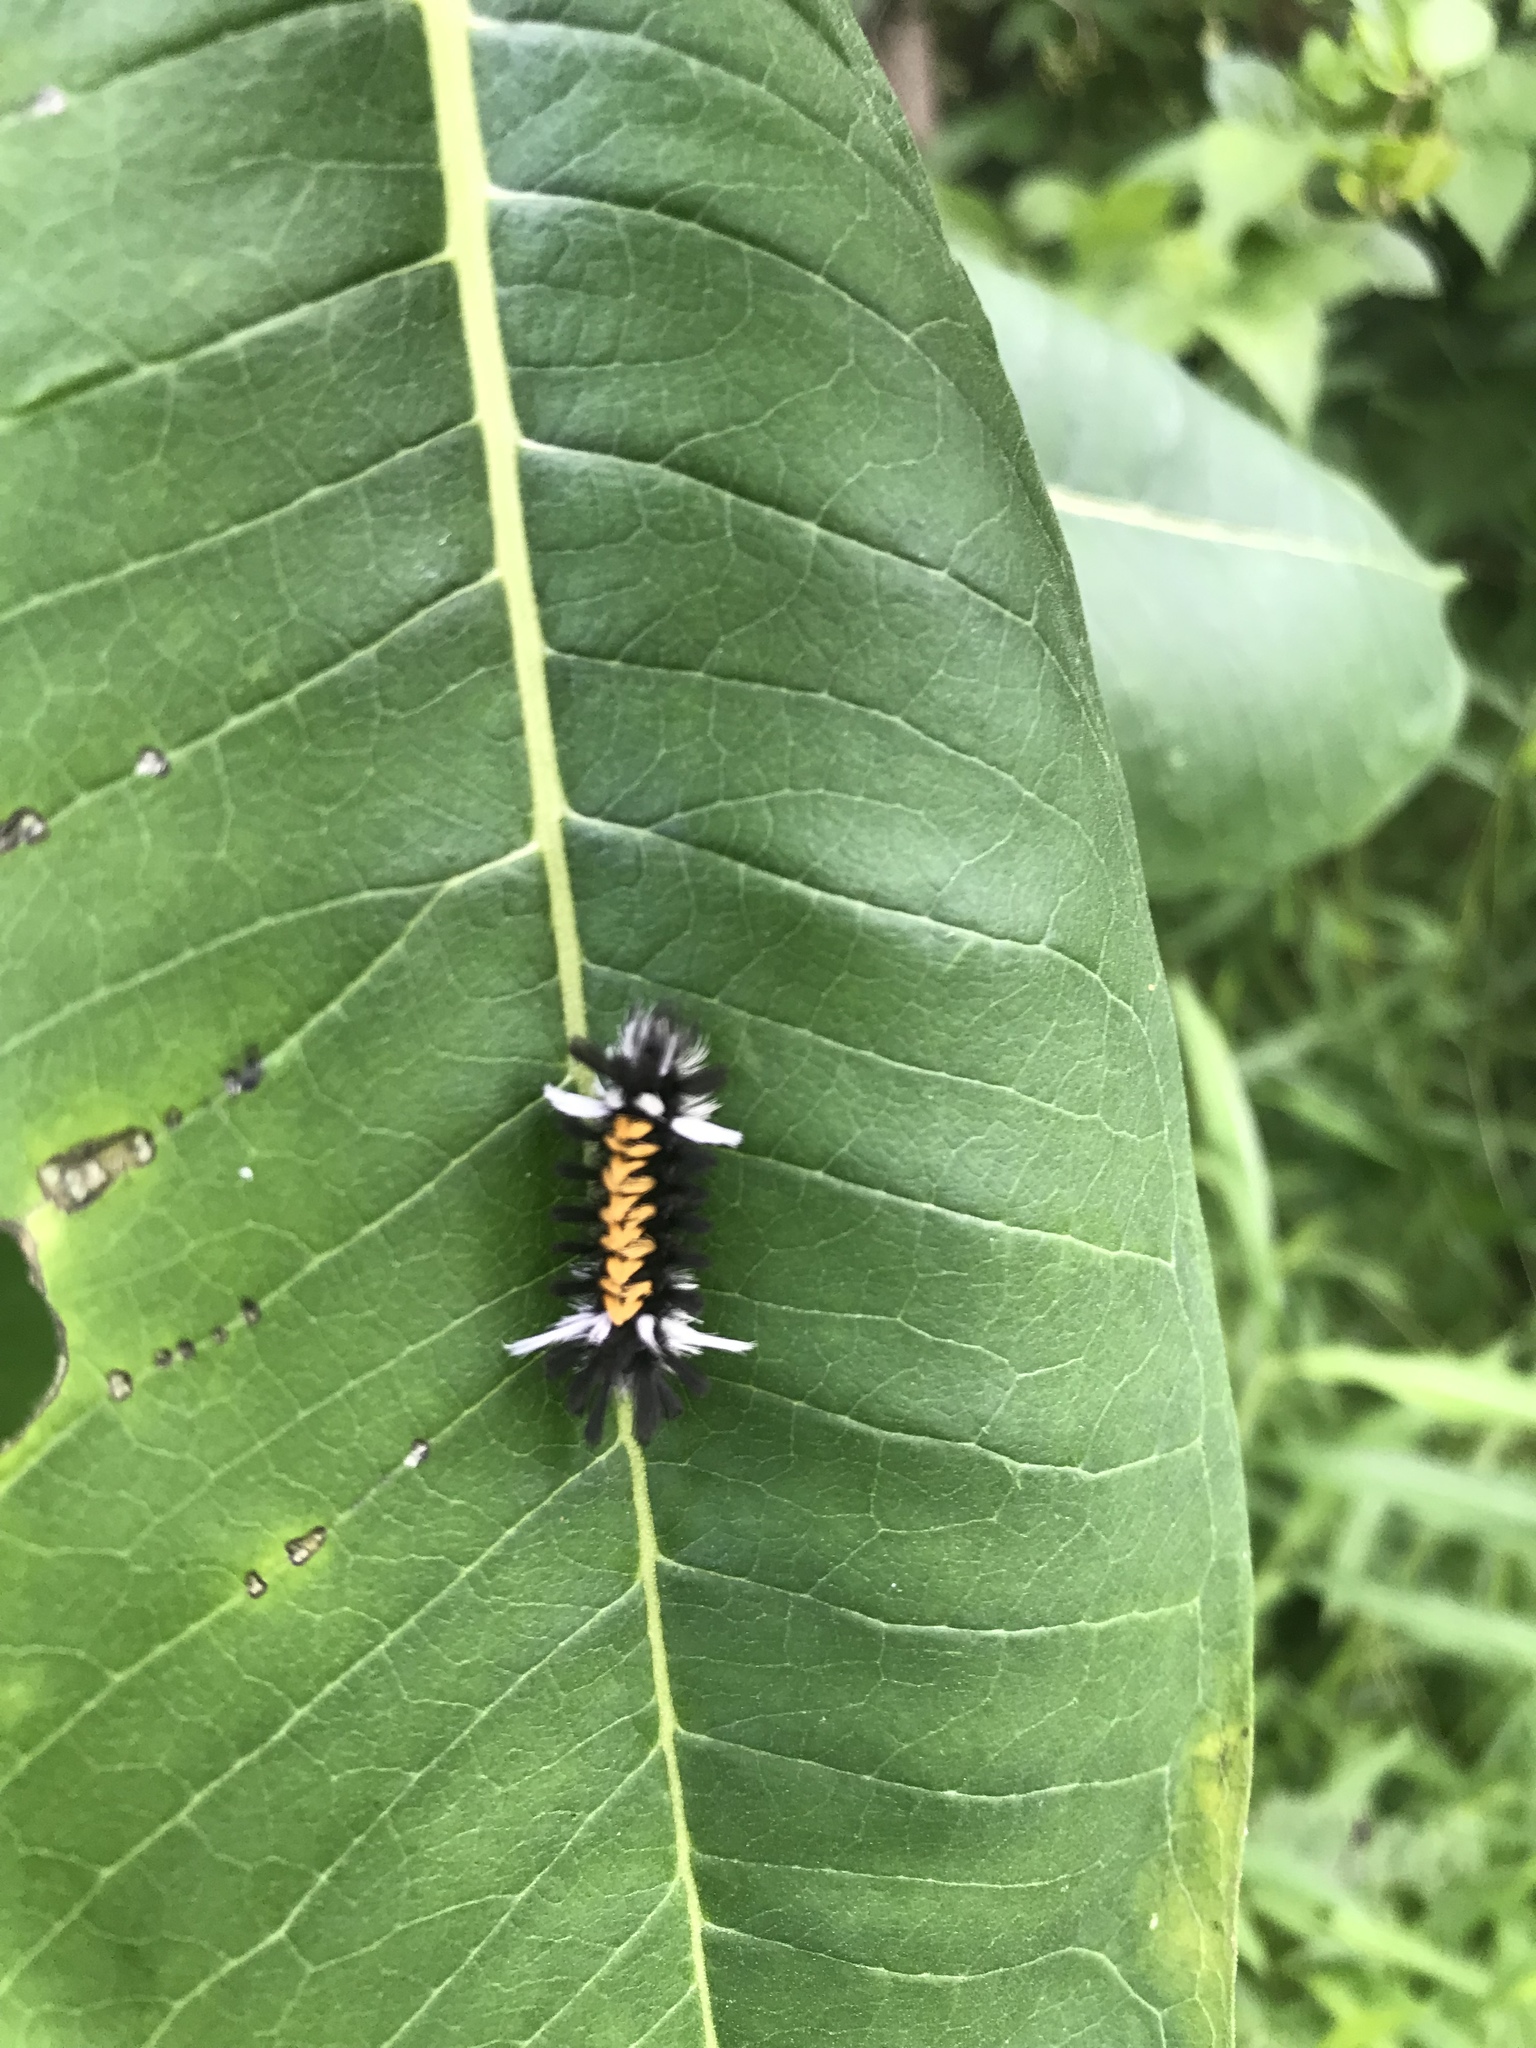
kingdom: Animalia
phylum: Arthropoda
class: Insecta
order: Lepidoptera
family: Erebidae
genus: Euchaetes
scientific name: Euchaetes egle
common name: Milkweed tussock moth
